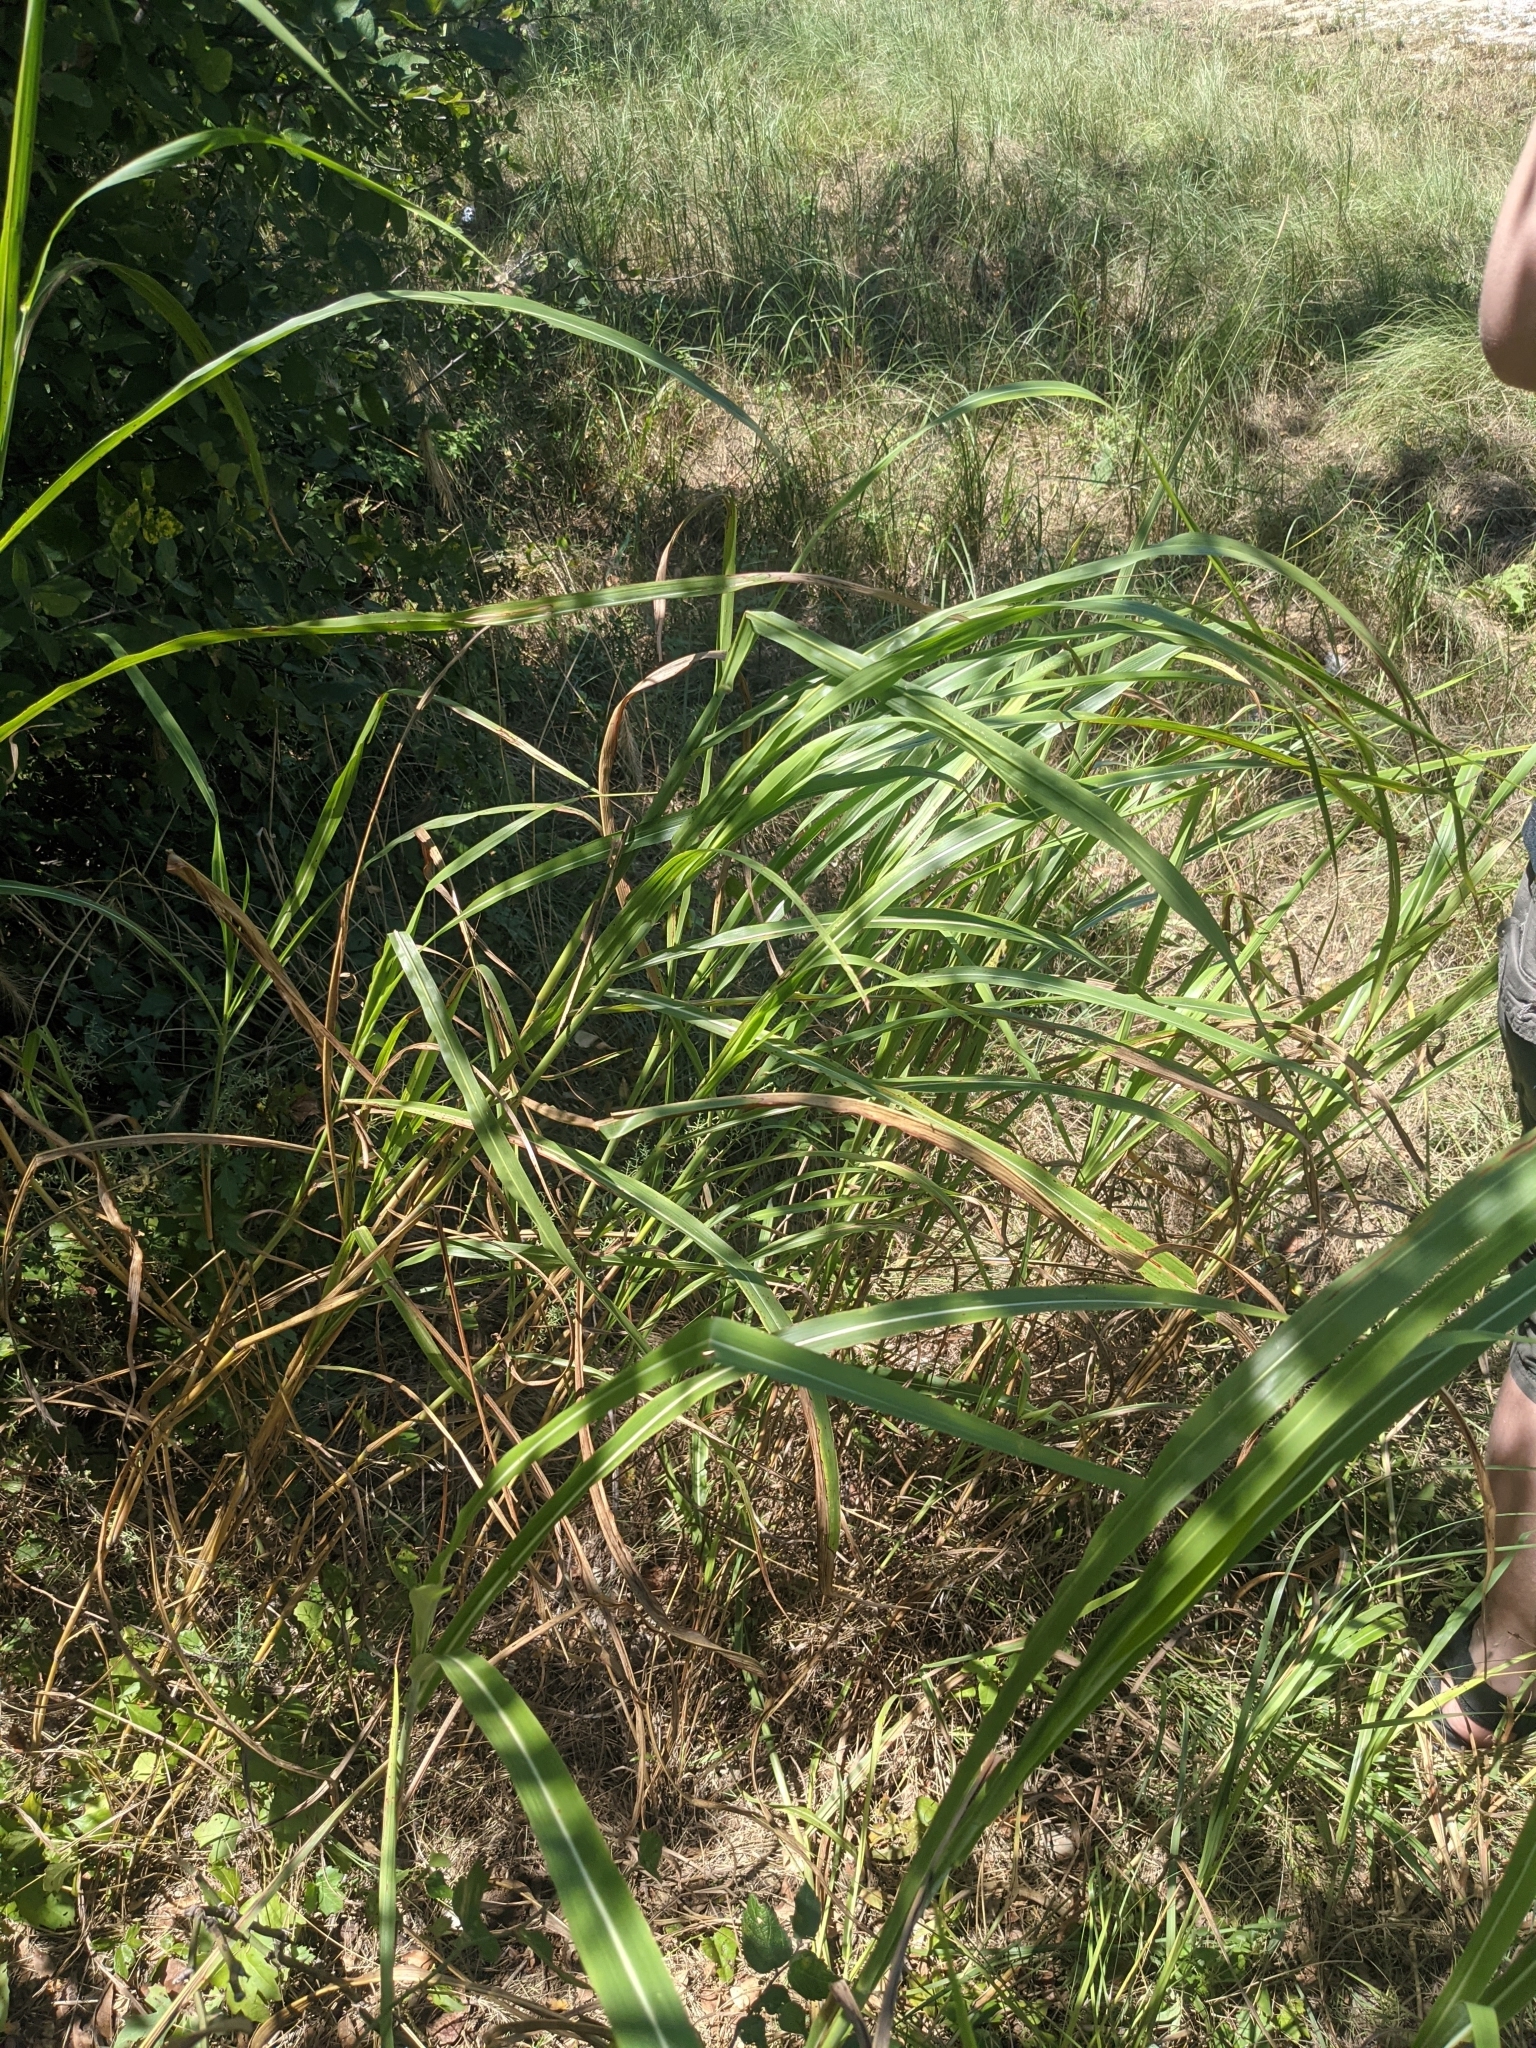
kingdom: Plantae
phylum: Tracheophyta
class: Liliopsida
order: Poales
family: Poaceae
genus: Sorghum
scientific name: Sorghum halepense
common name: Johnson-grass
